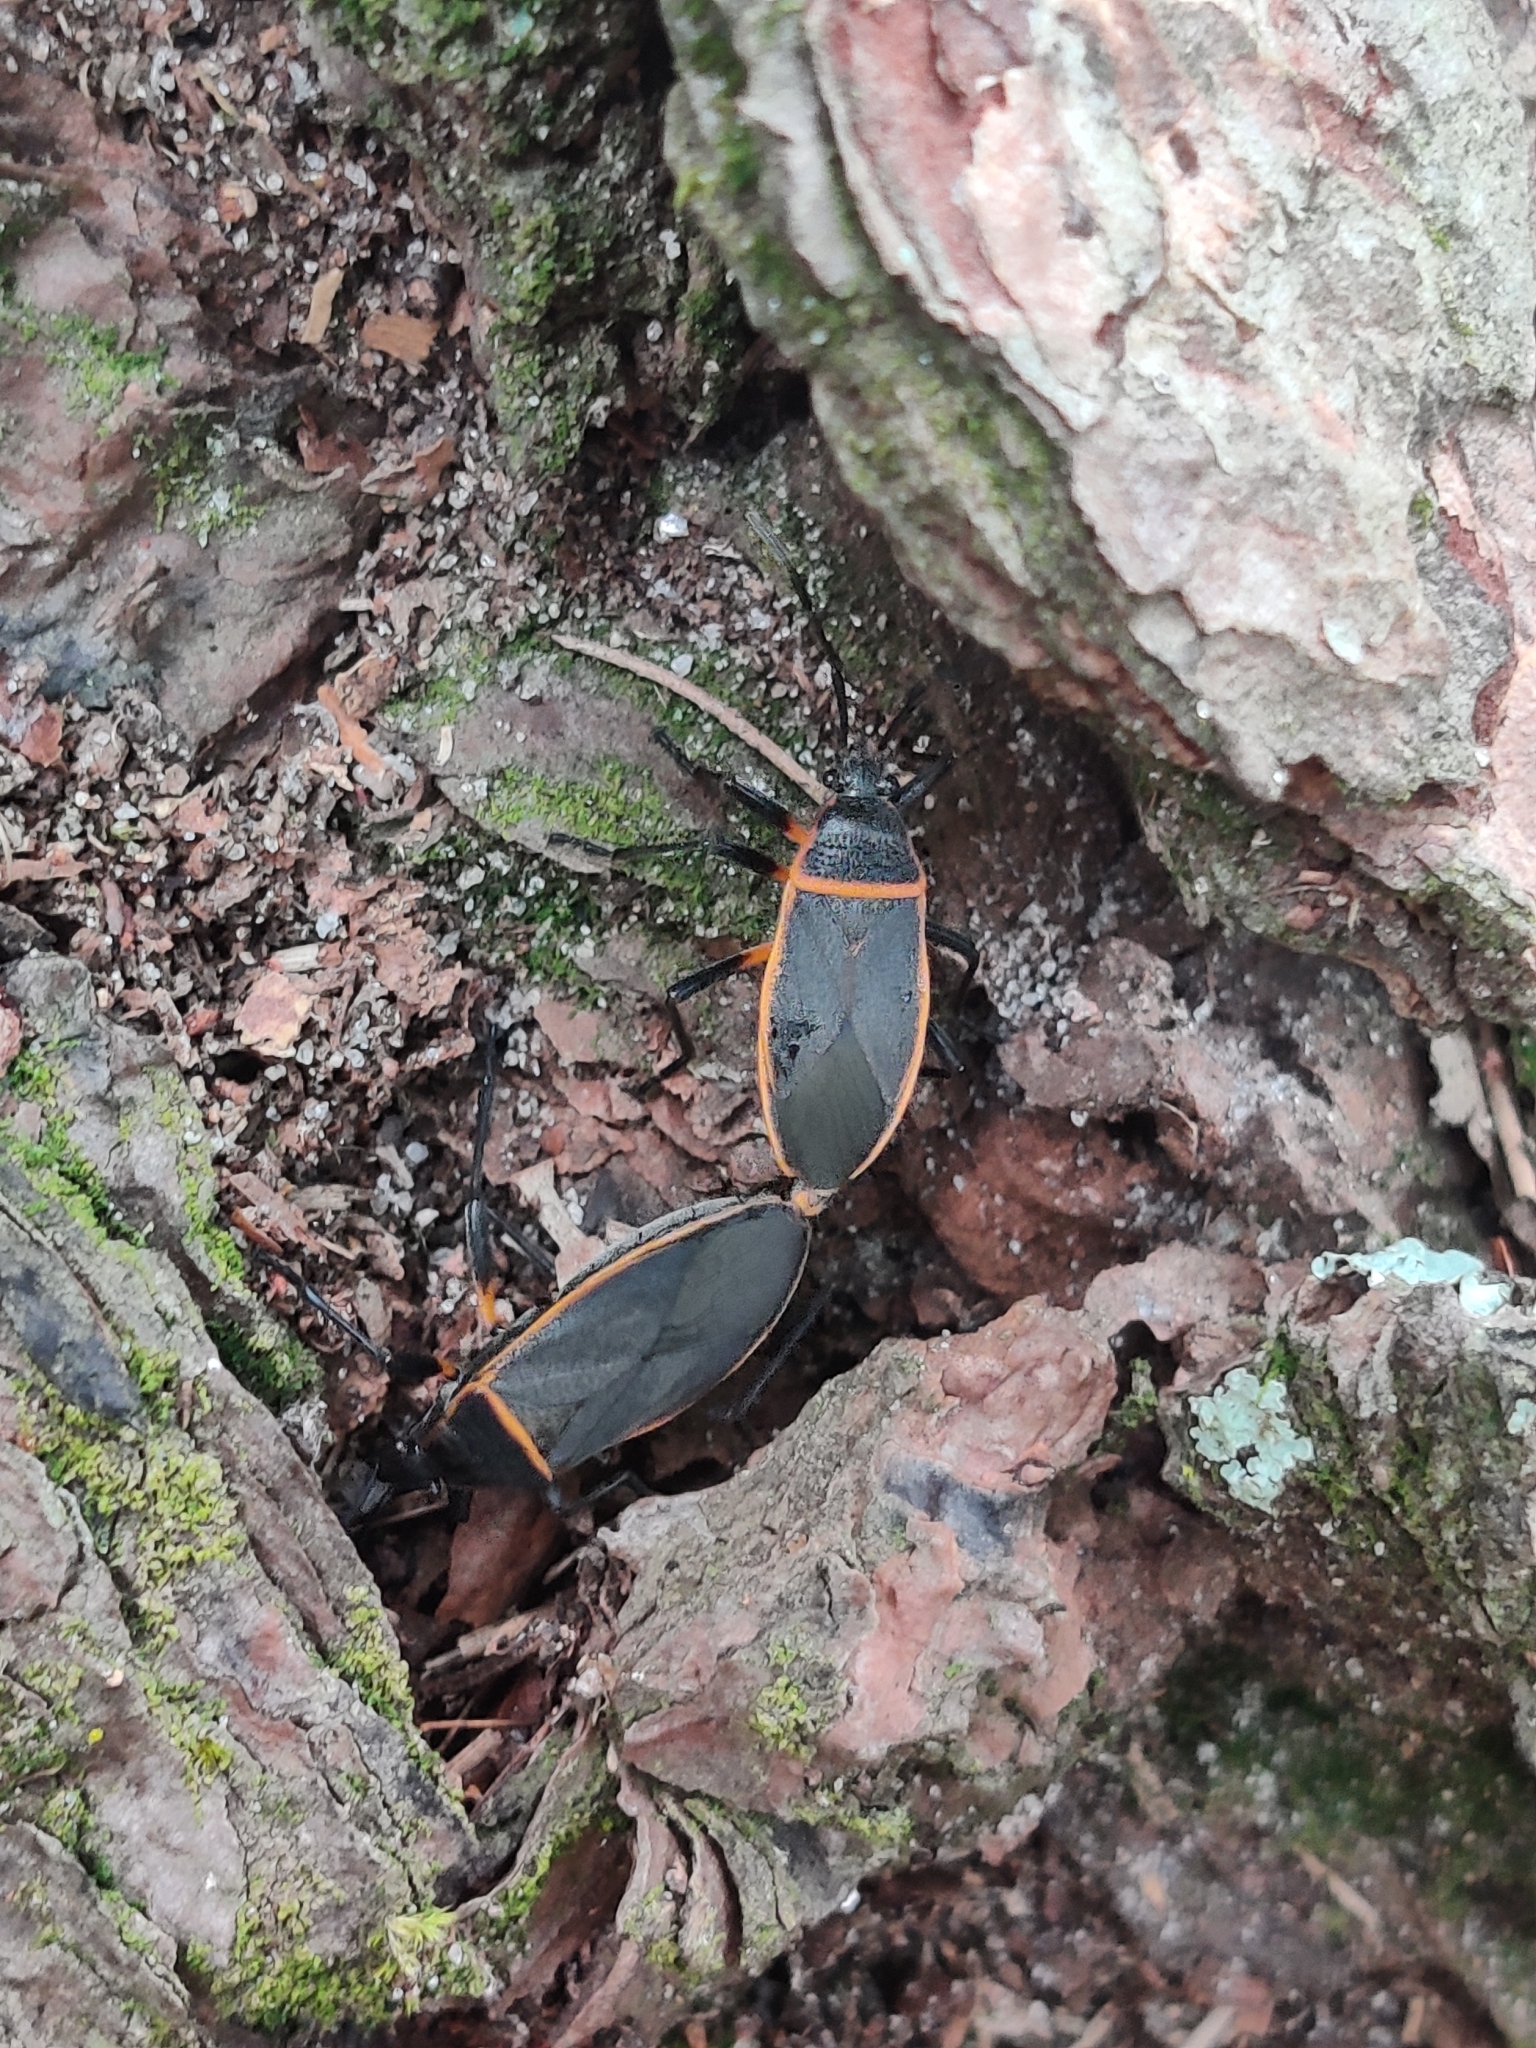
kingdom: Animalia
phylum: Arthropoda
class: Insecta
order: Hemiptera
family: Largidae
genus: Largus
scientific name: Largus succinctus
